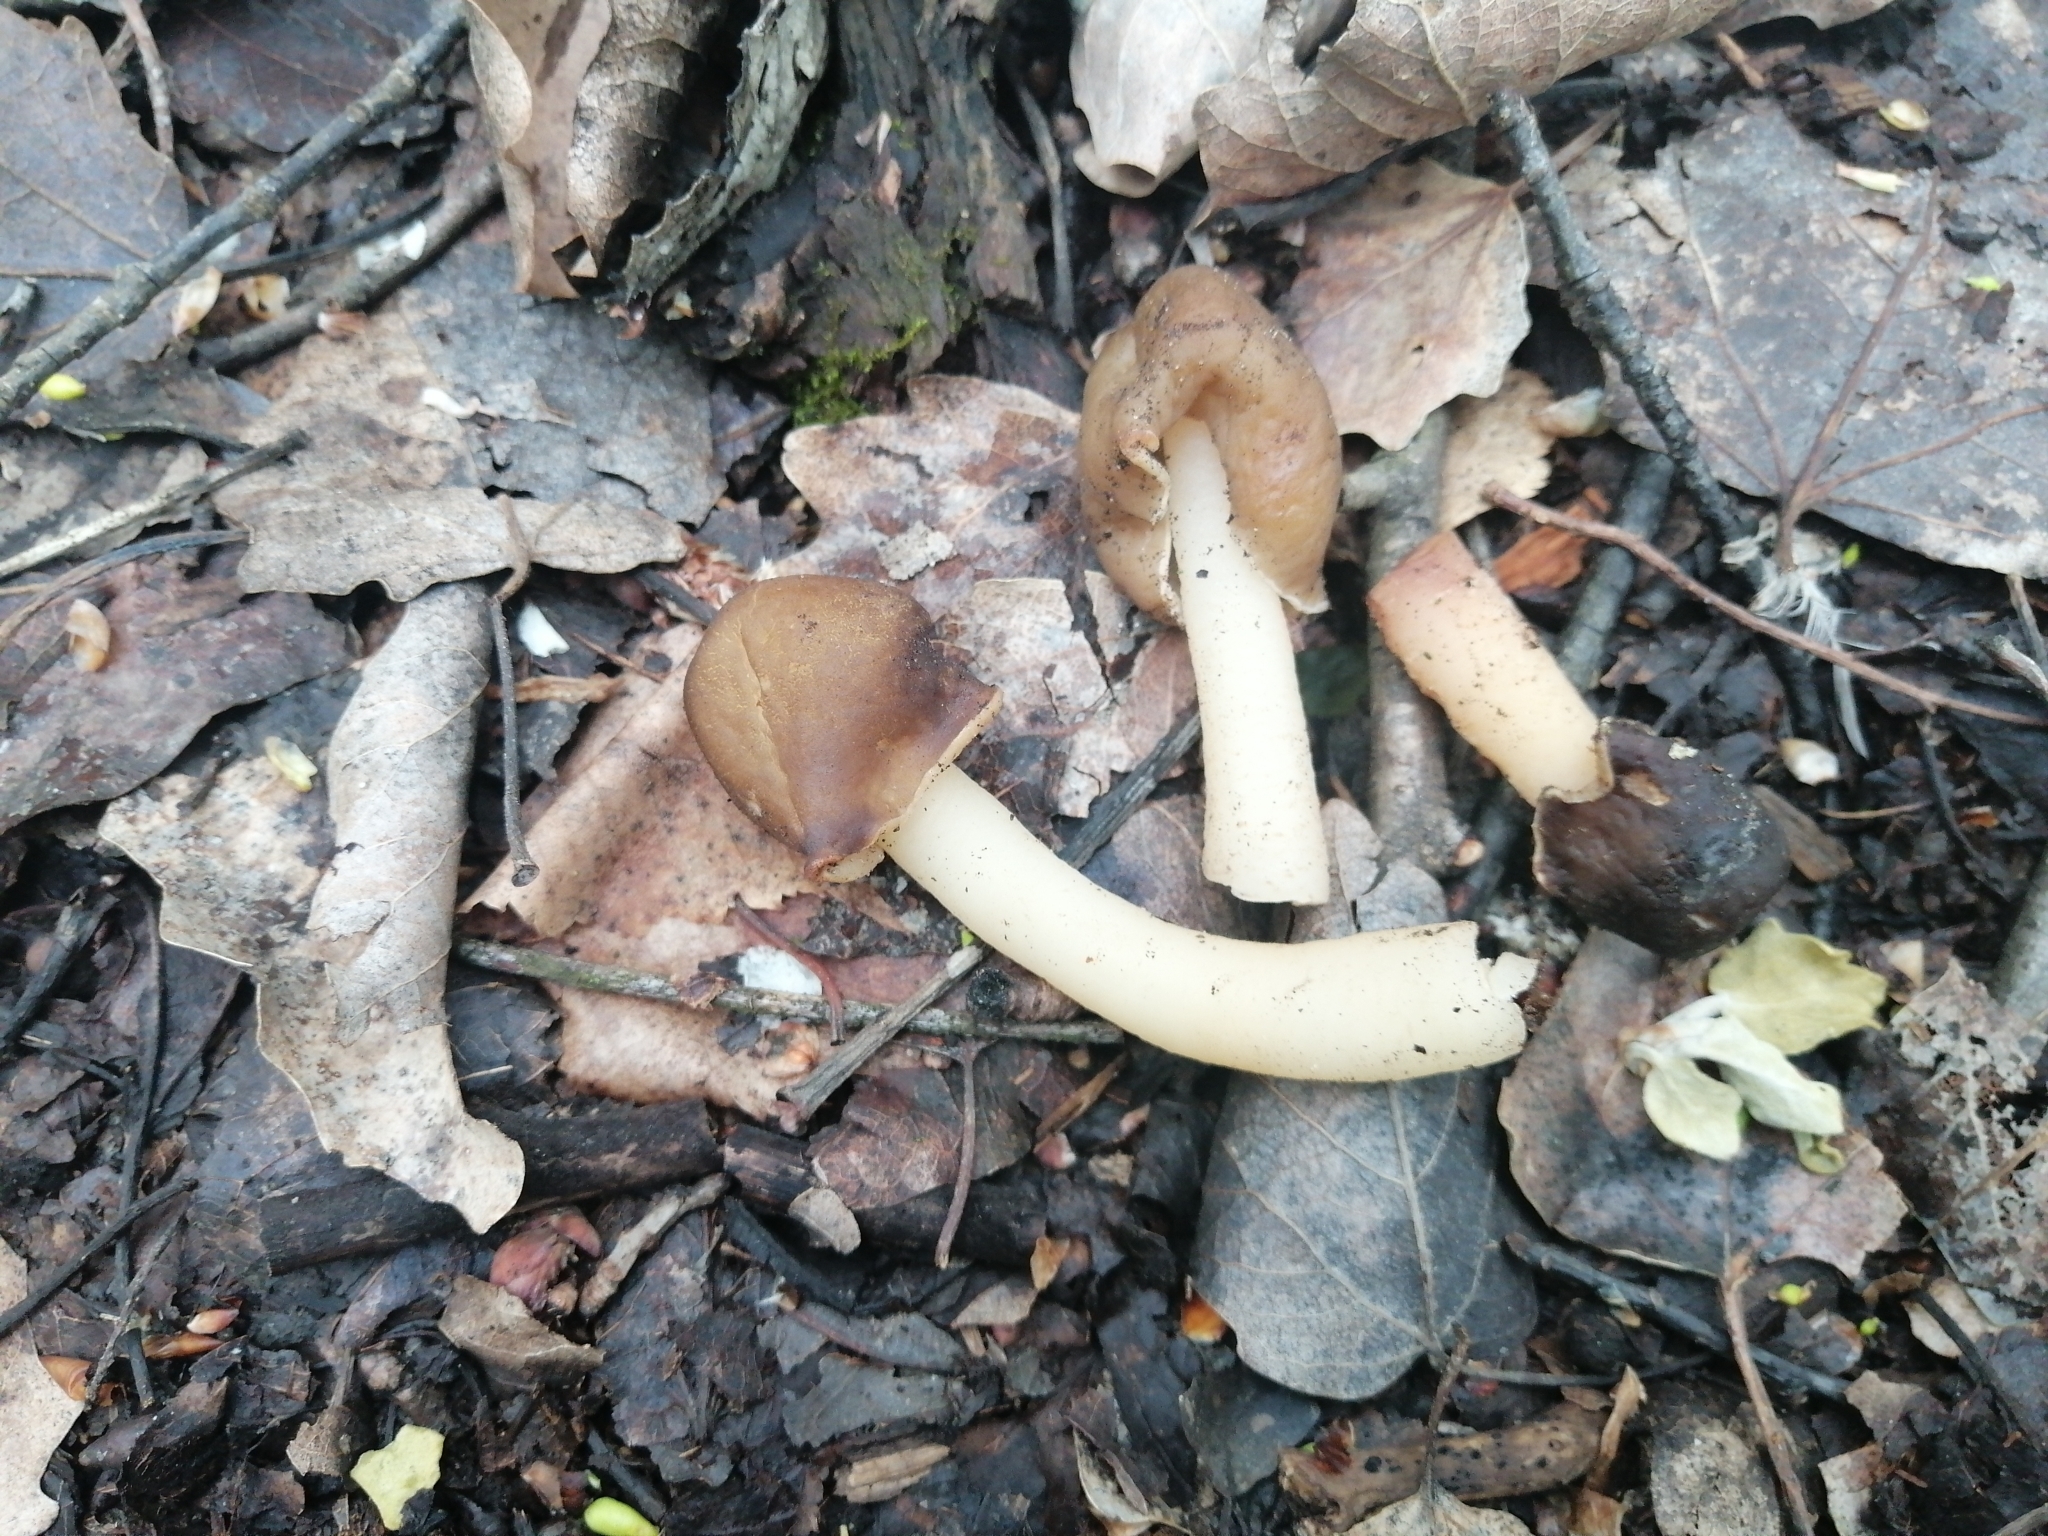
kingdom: Fungi
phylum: Ascomycota
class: Pezizomycetes
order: Pezizales
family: Morchellaceae
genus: Verpa
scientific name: Verpa conica
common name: Thimble morel
